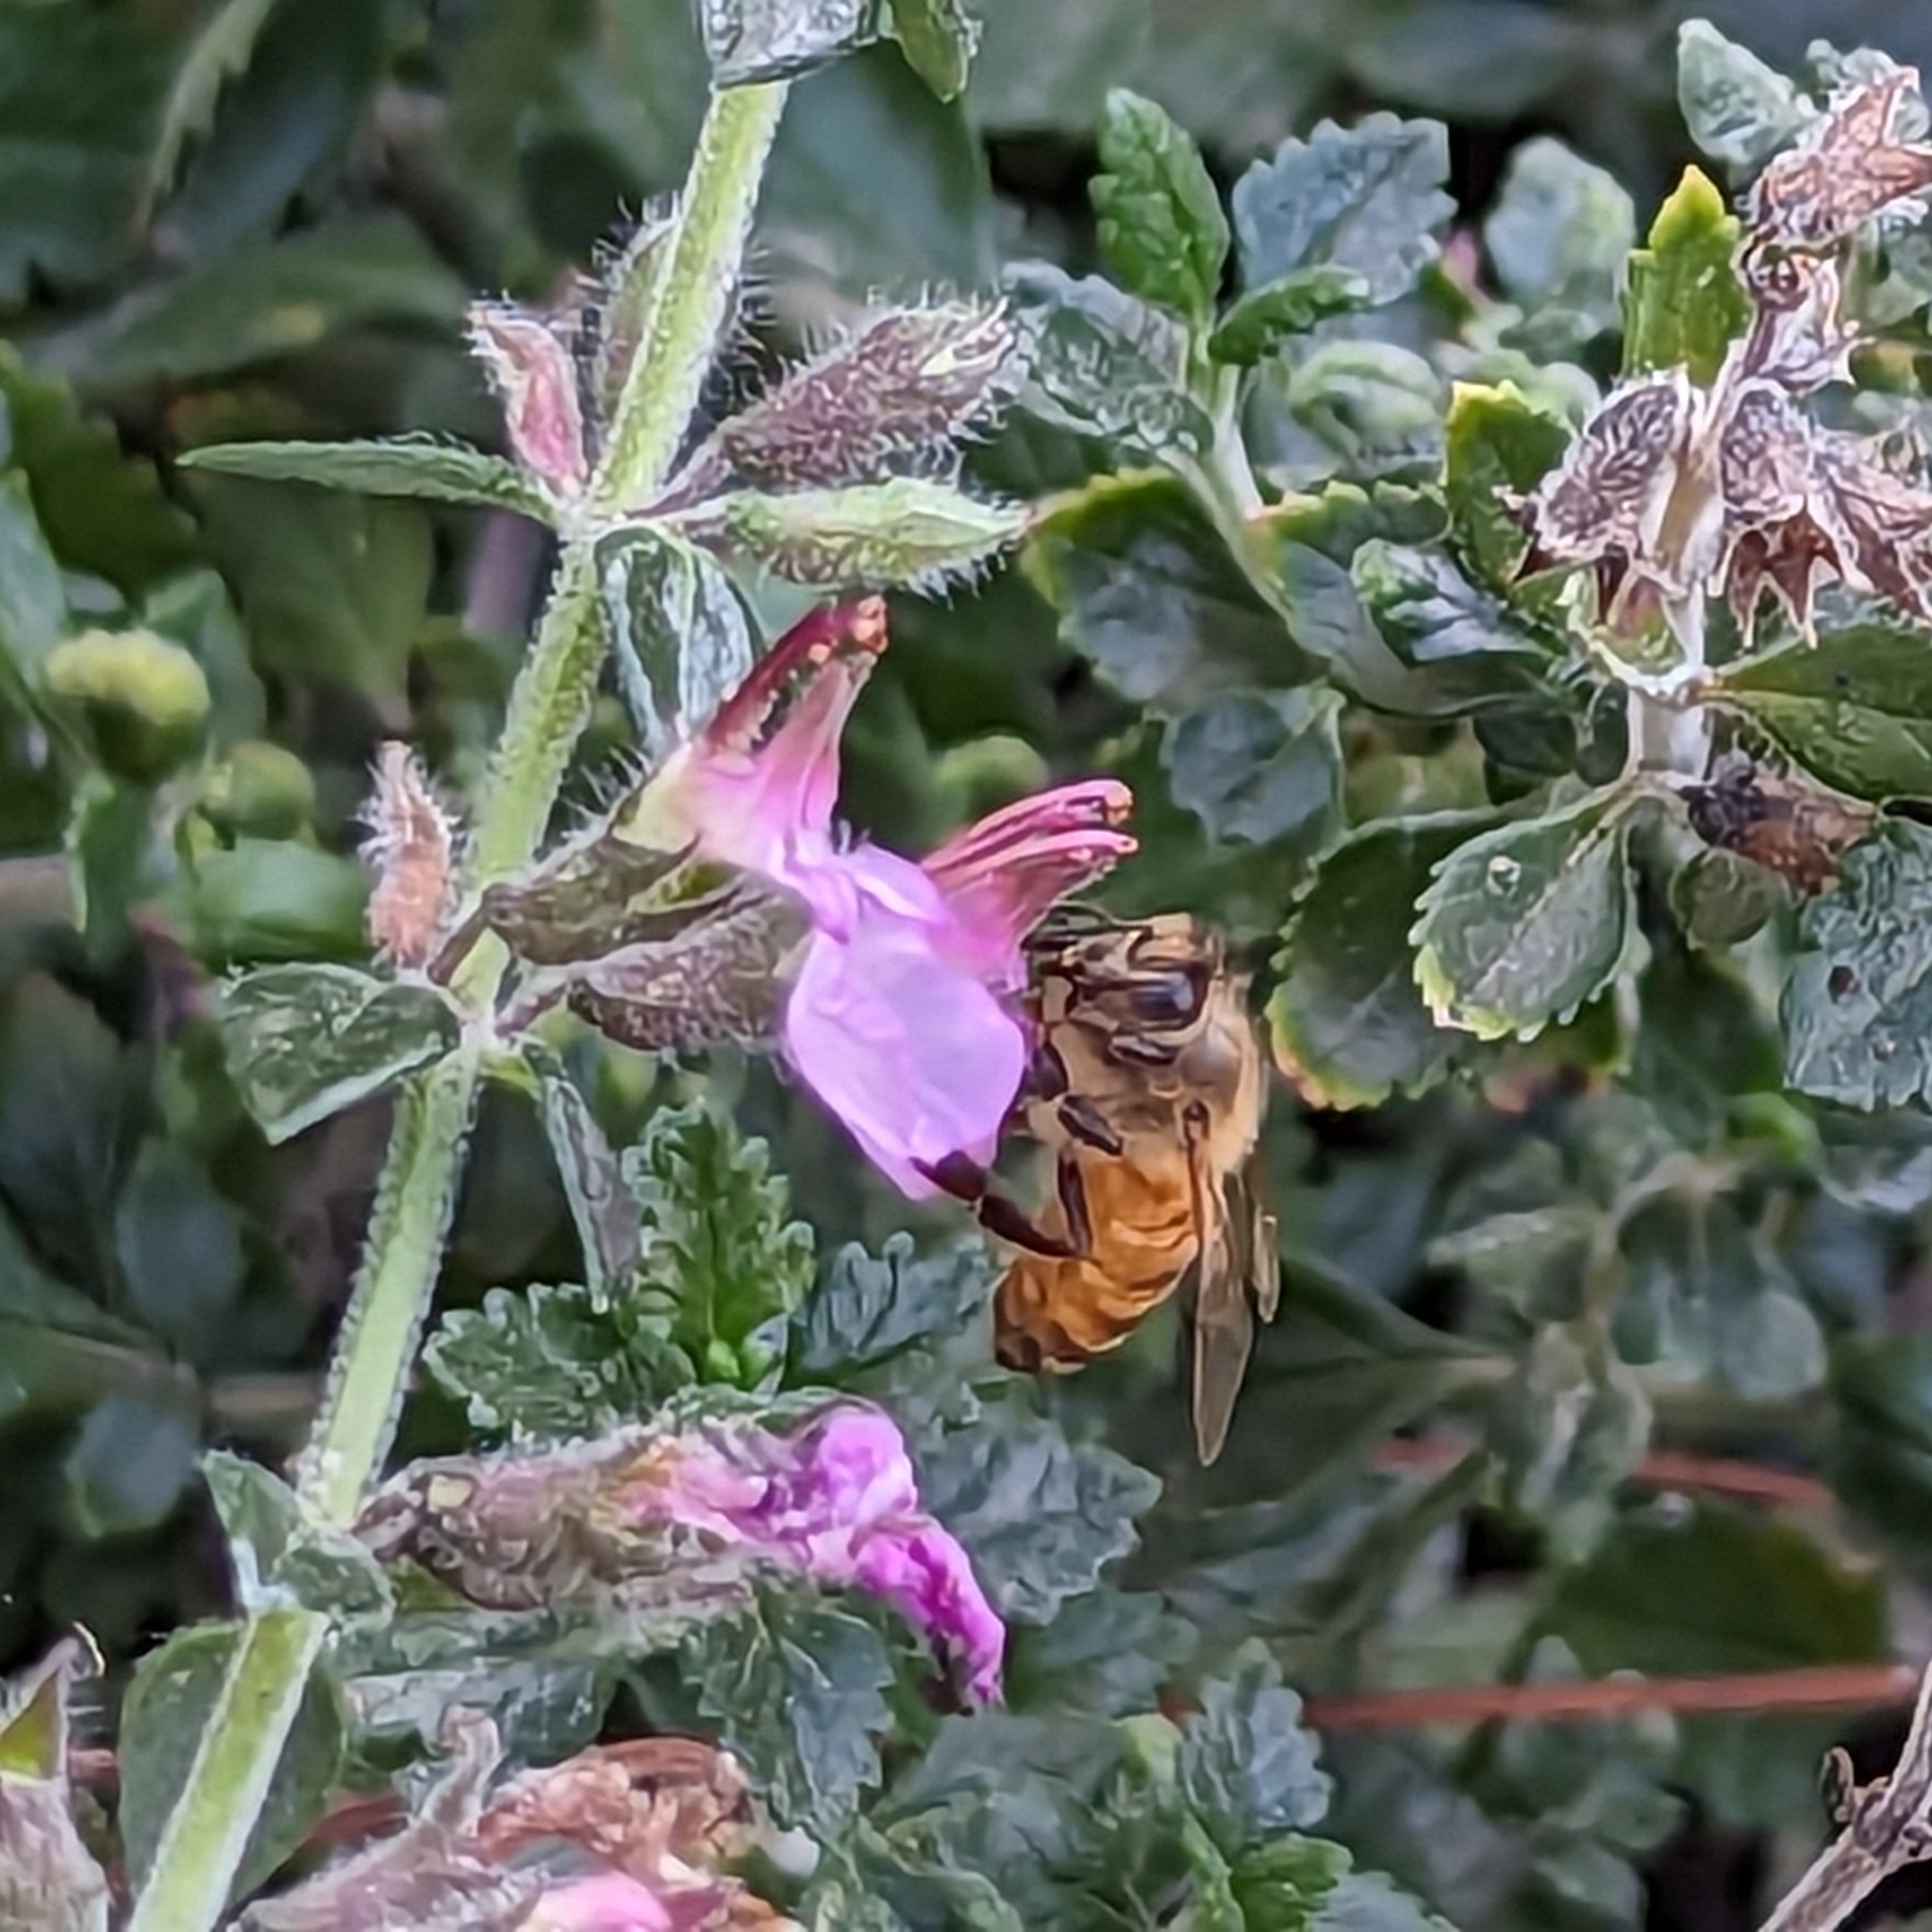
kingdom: Animalia
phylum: Arthropoda
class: Insecta
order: Hymenoptera
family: Apidae
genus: Apis
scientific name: Apis mellifera
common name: Honey bee
